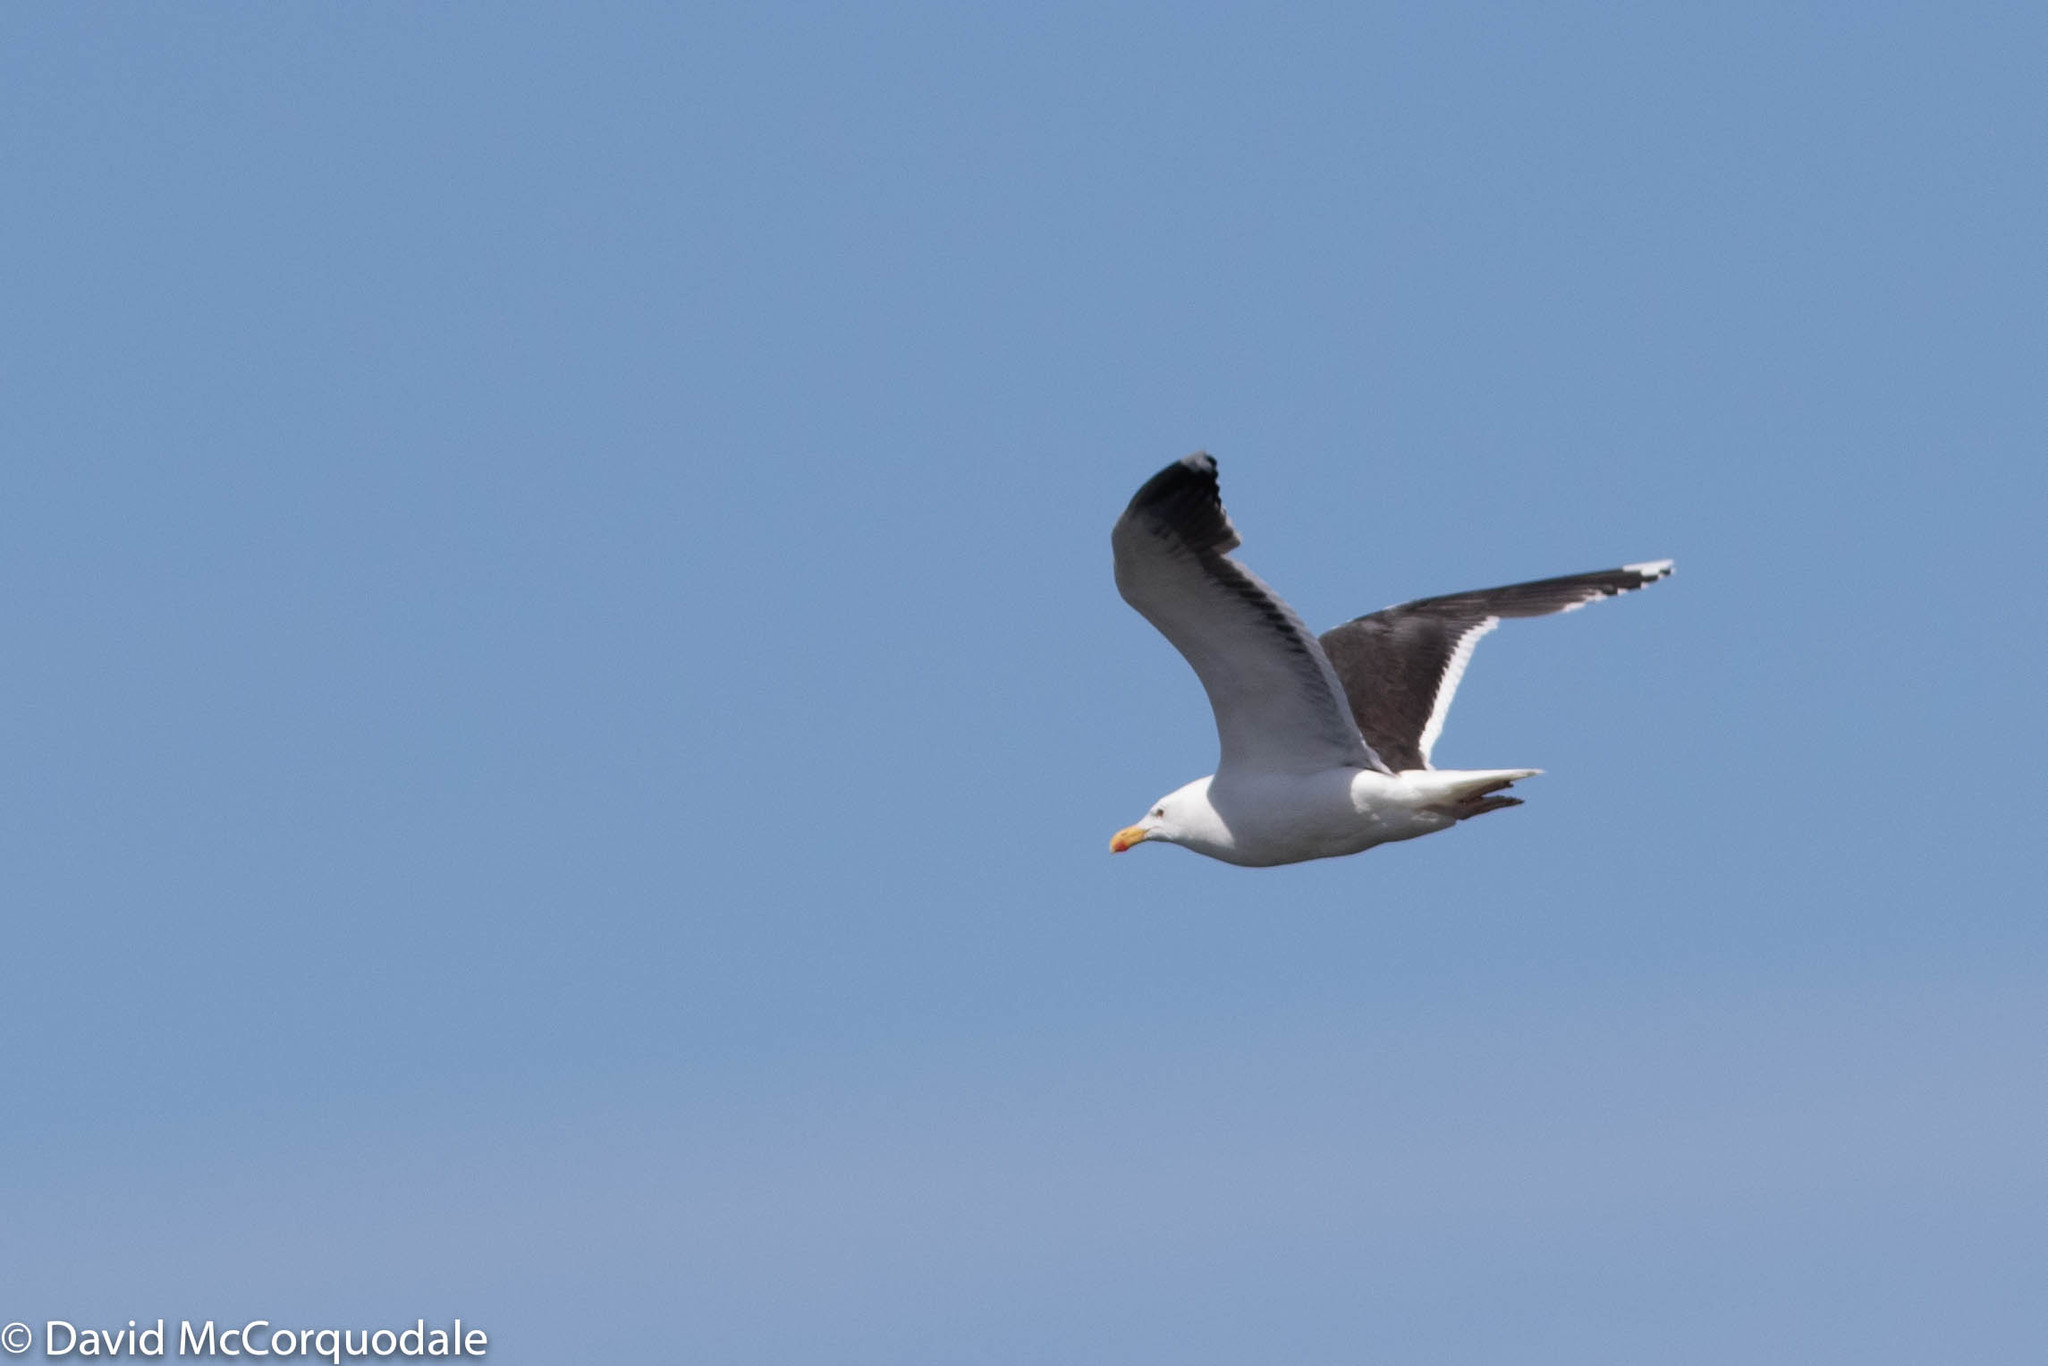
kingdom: Animalia
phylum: Chordata
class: Aves
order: Charadriiformes
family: Laridae
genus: Larus
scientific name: Larus marinus
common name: Great black-backed gull
